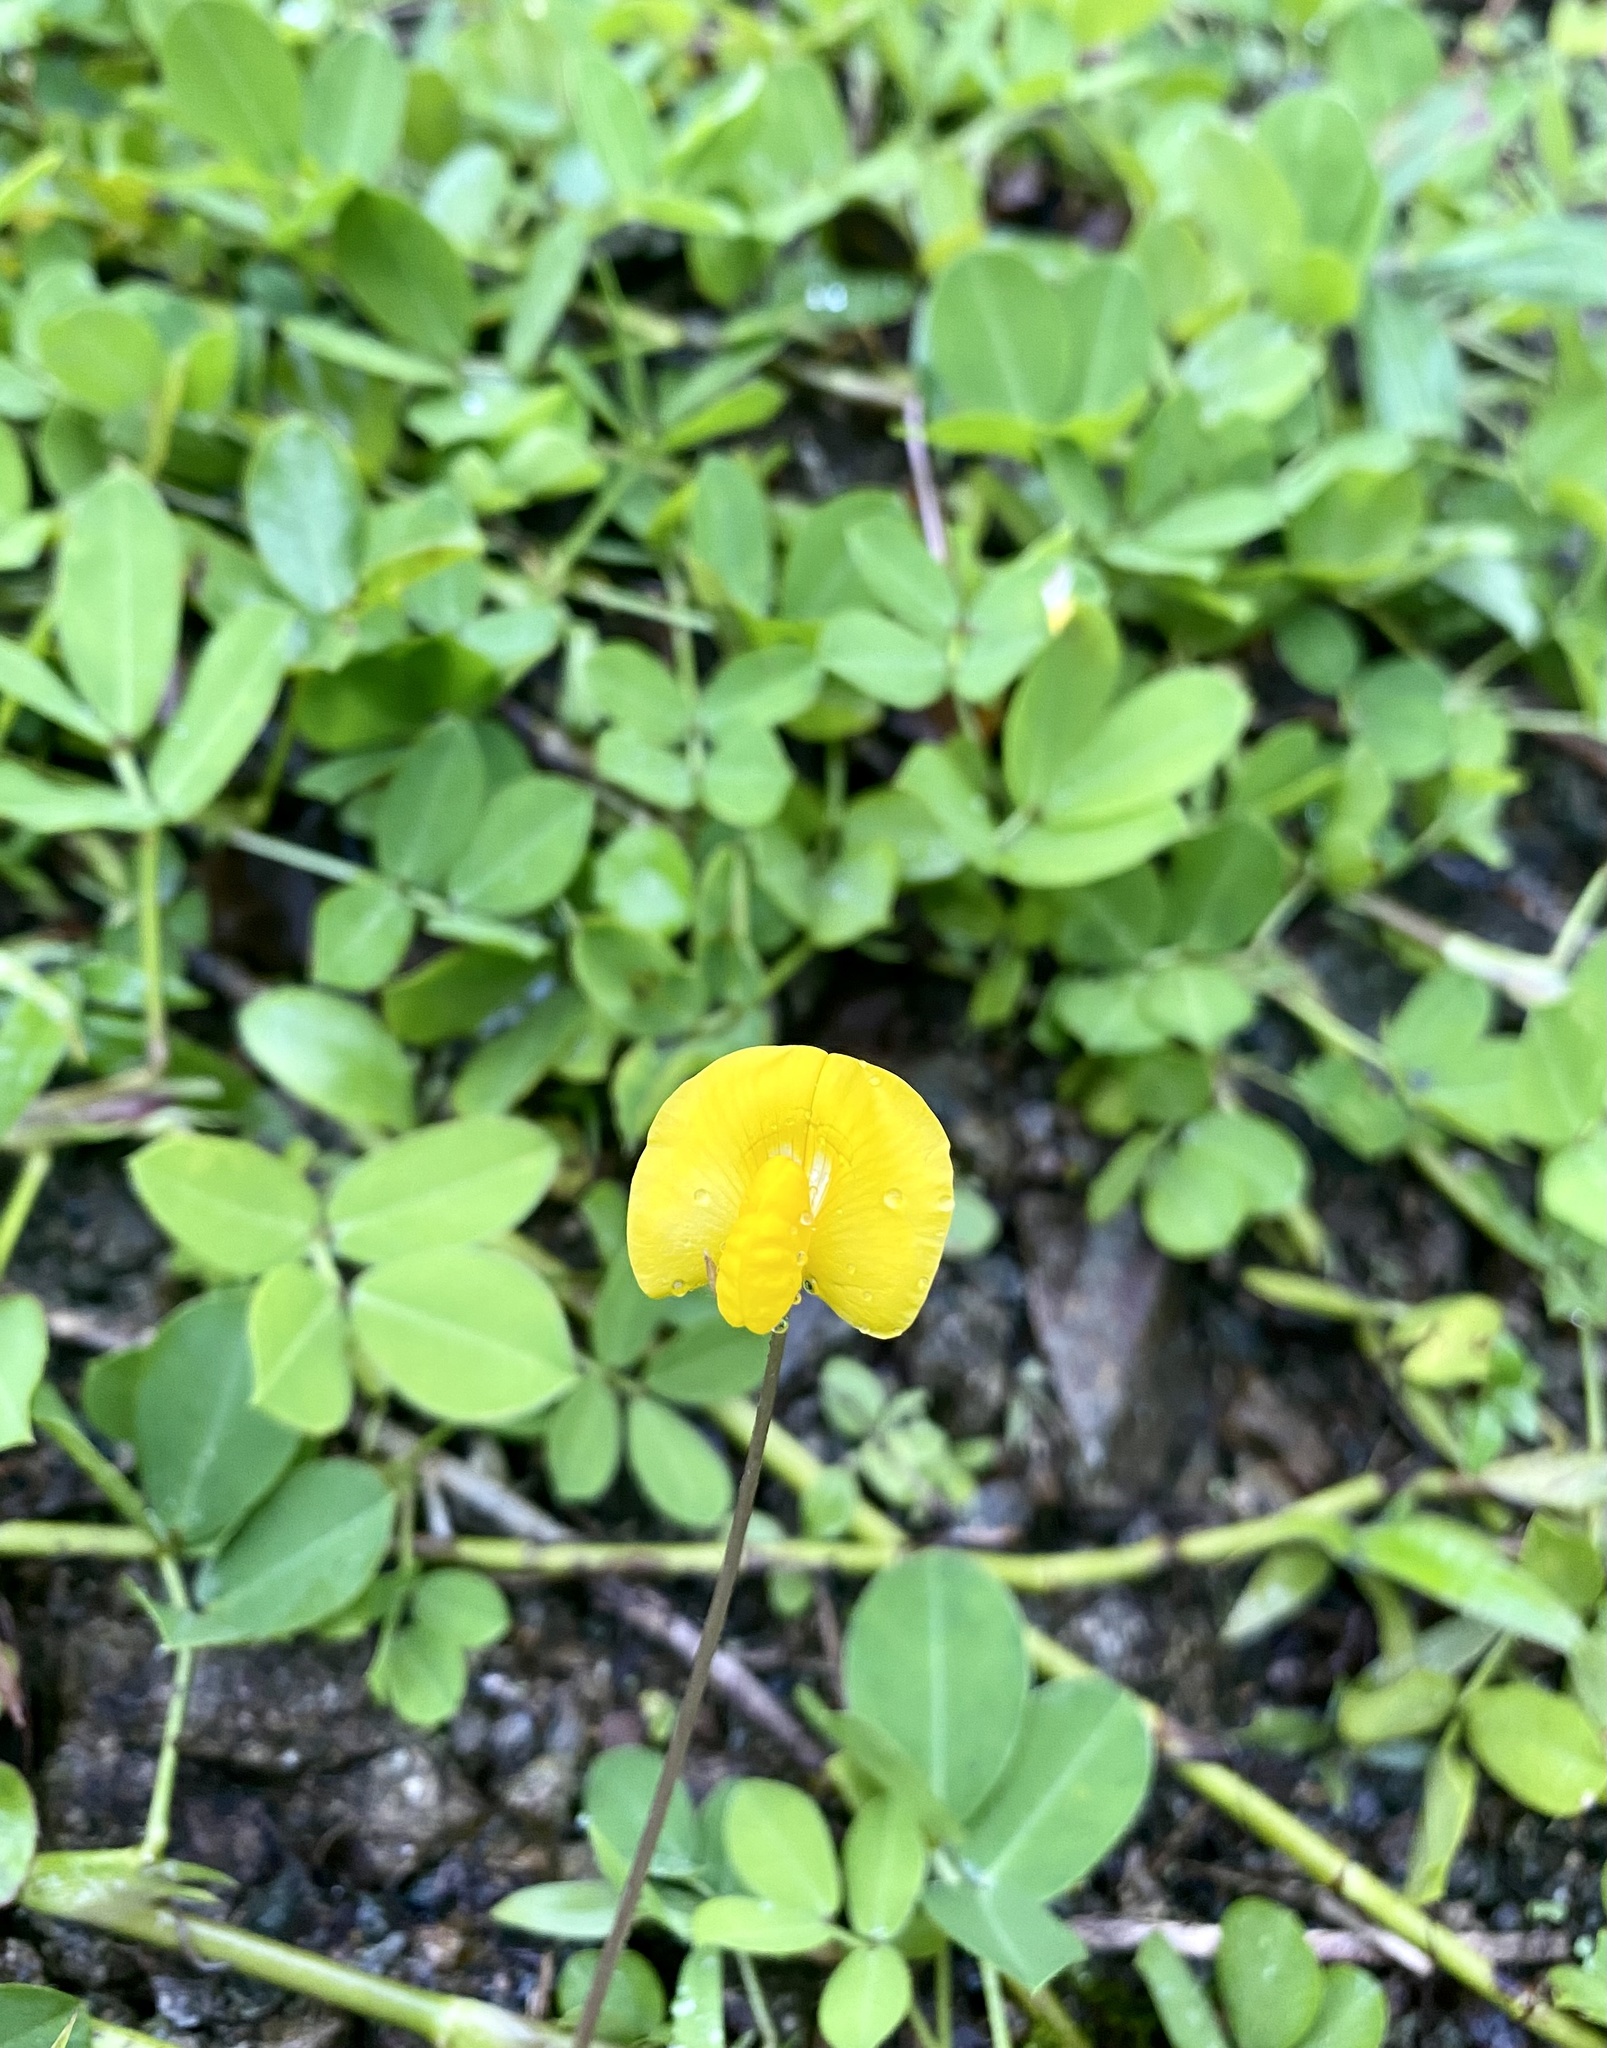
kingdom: Plantae
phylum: Tracheophyta
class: Magnoliopsida
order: Fabales
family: Fabaceae
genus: Arachis
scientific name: Arachis pintoi
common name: Pinto peanut
